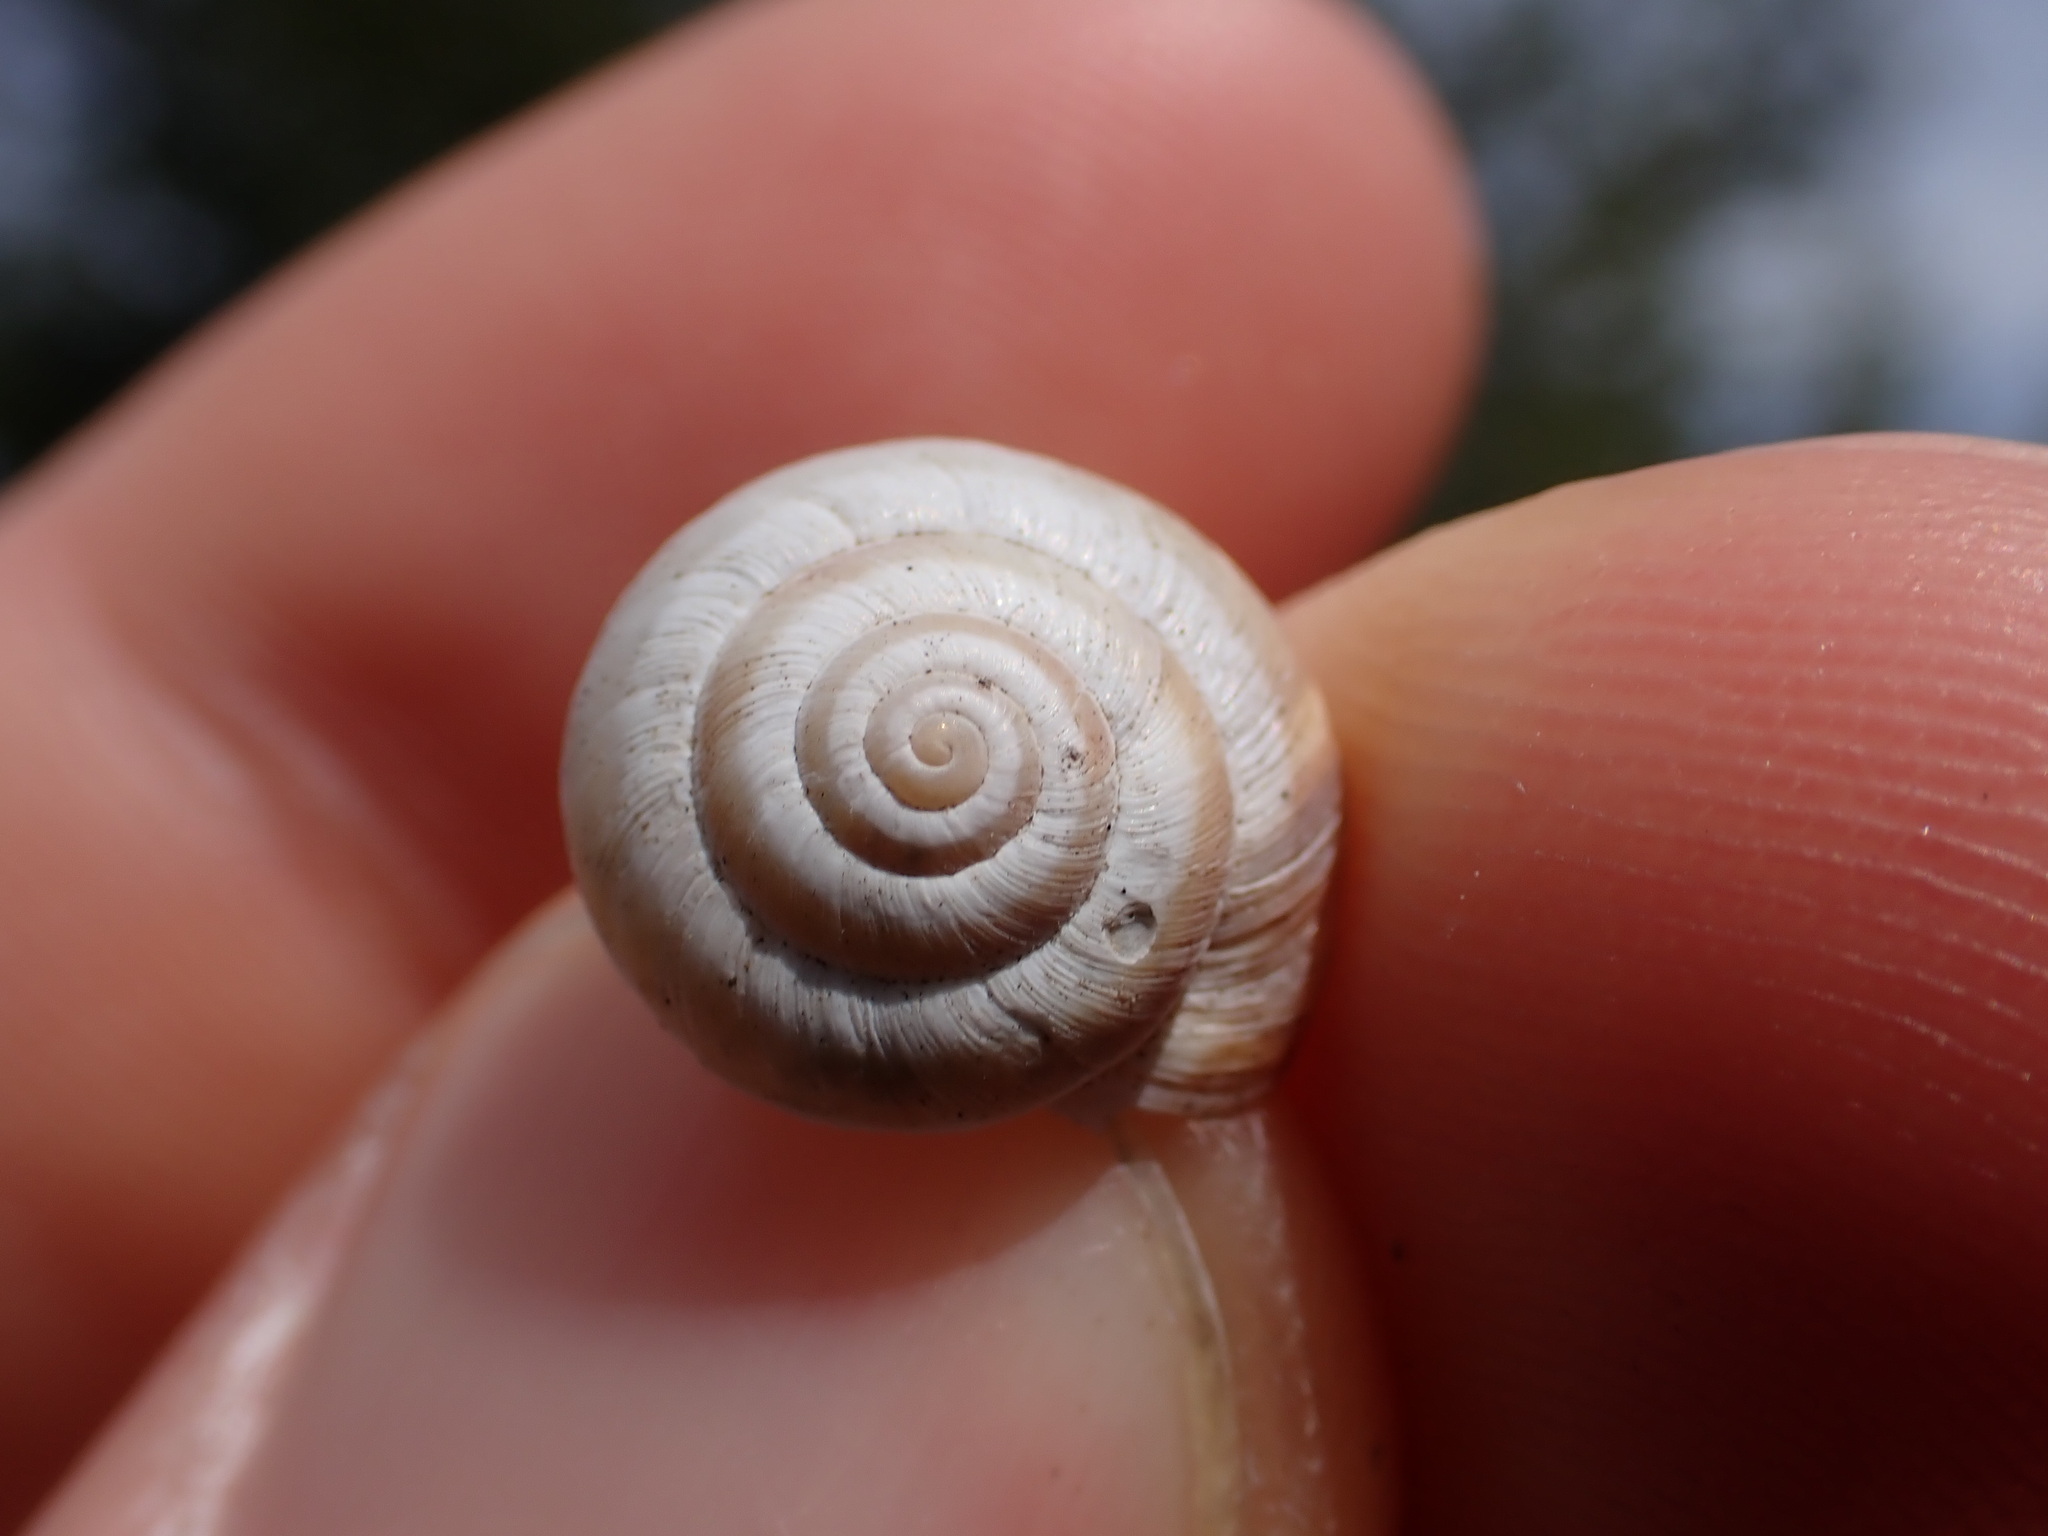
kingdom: Animalia
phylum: Mollusca
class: Gastropoda
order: Stylommatophora
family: Geomitridae
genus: Cernuella
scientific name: Cernuella virgata
